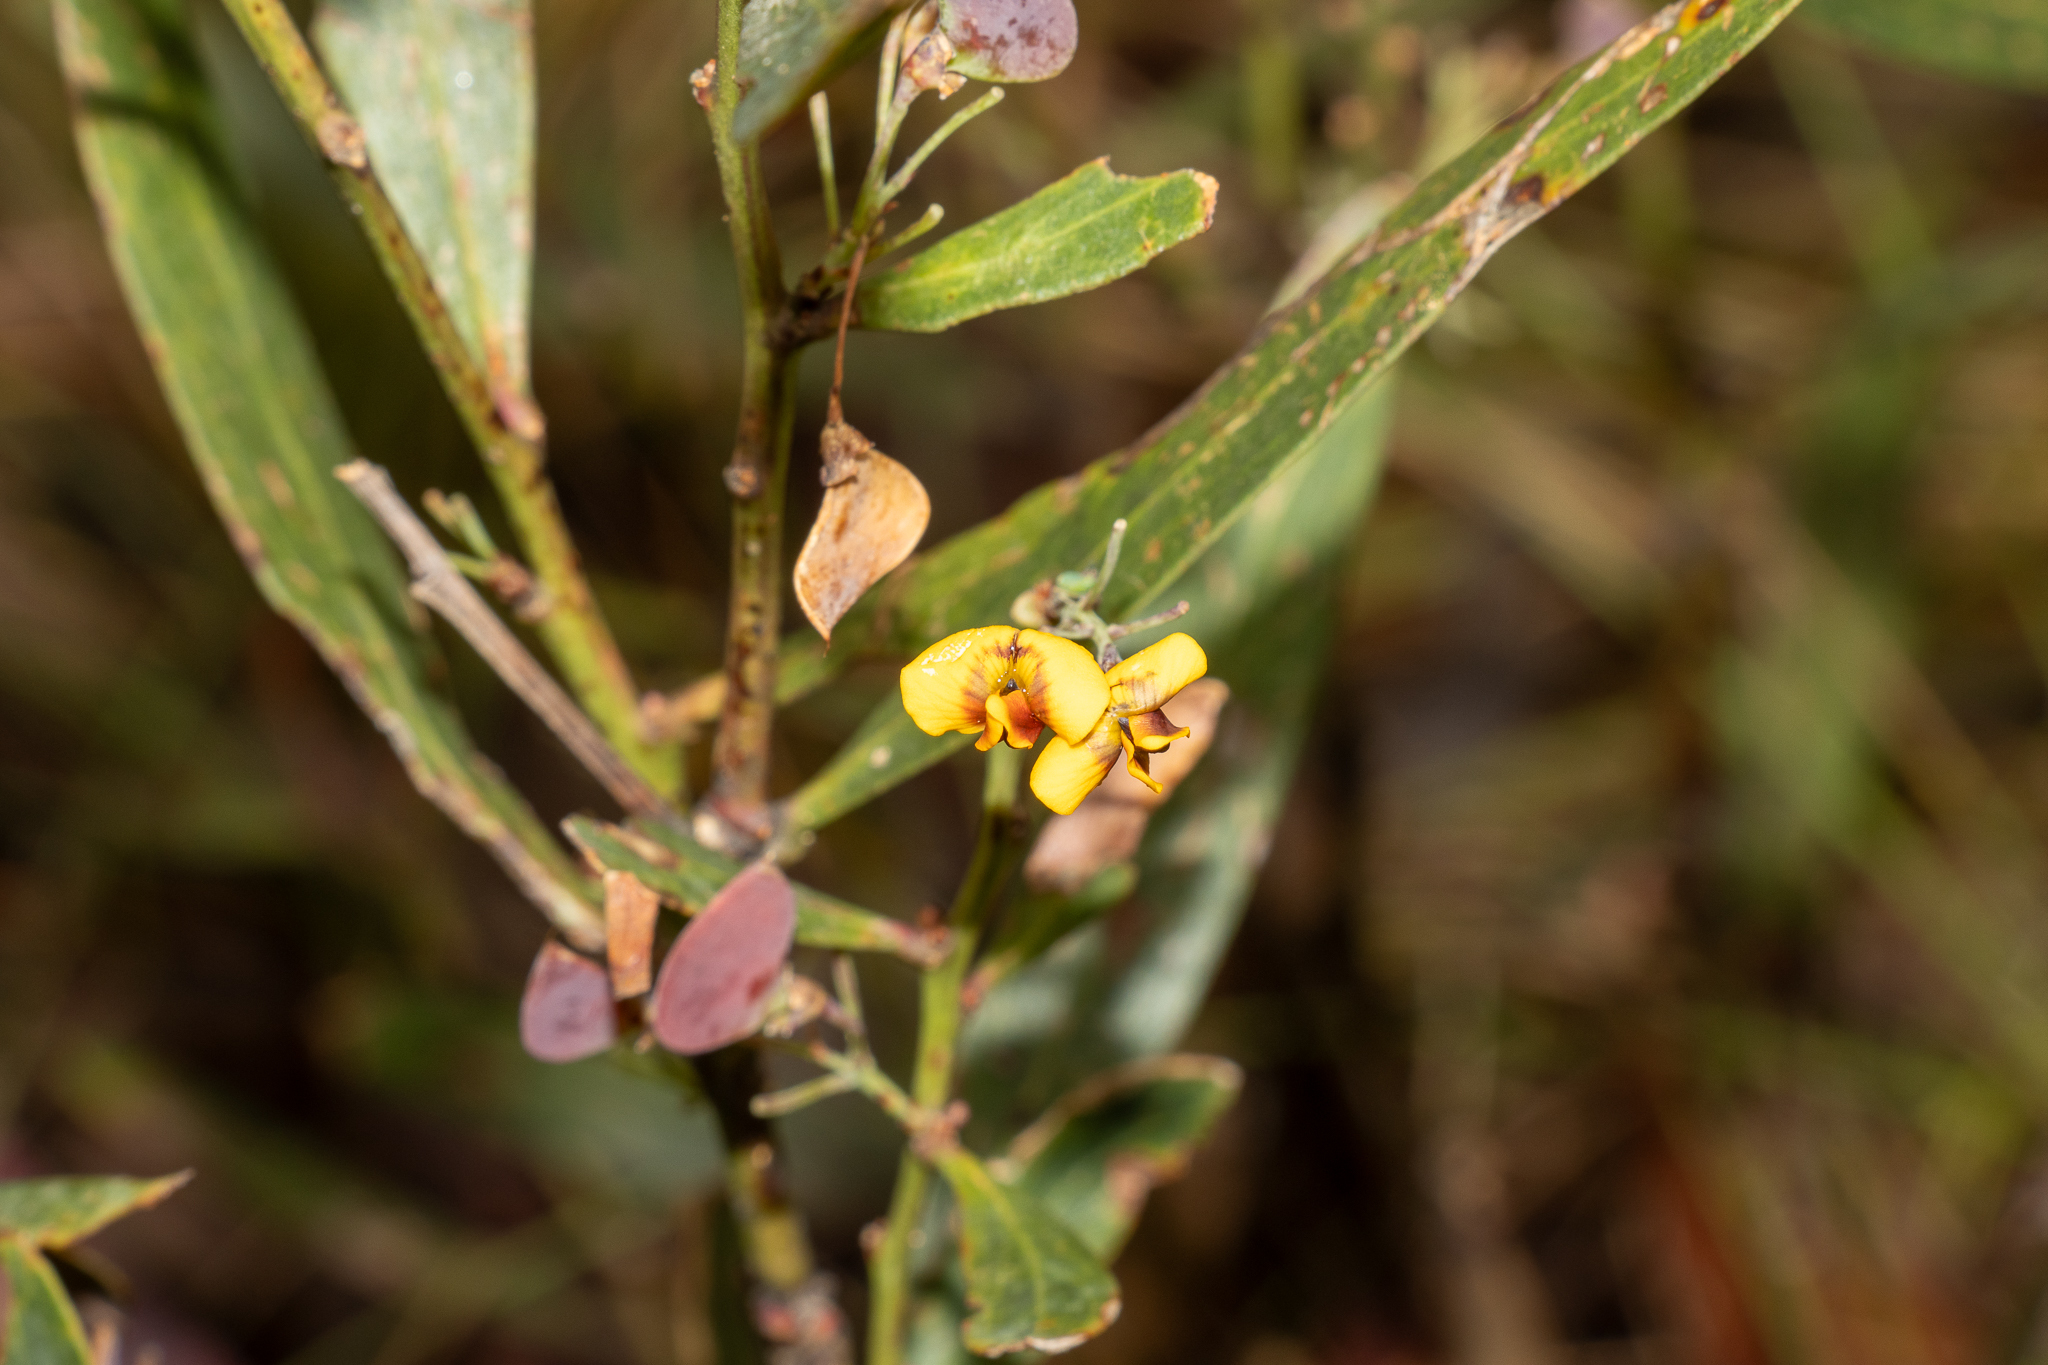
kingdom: Plantae
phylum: Tracheophyta
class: Magnoliopsida
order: Fabales
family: Fabaceae
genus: Daviesia
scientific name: Daviesia mimosoides
